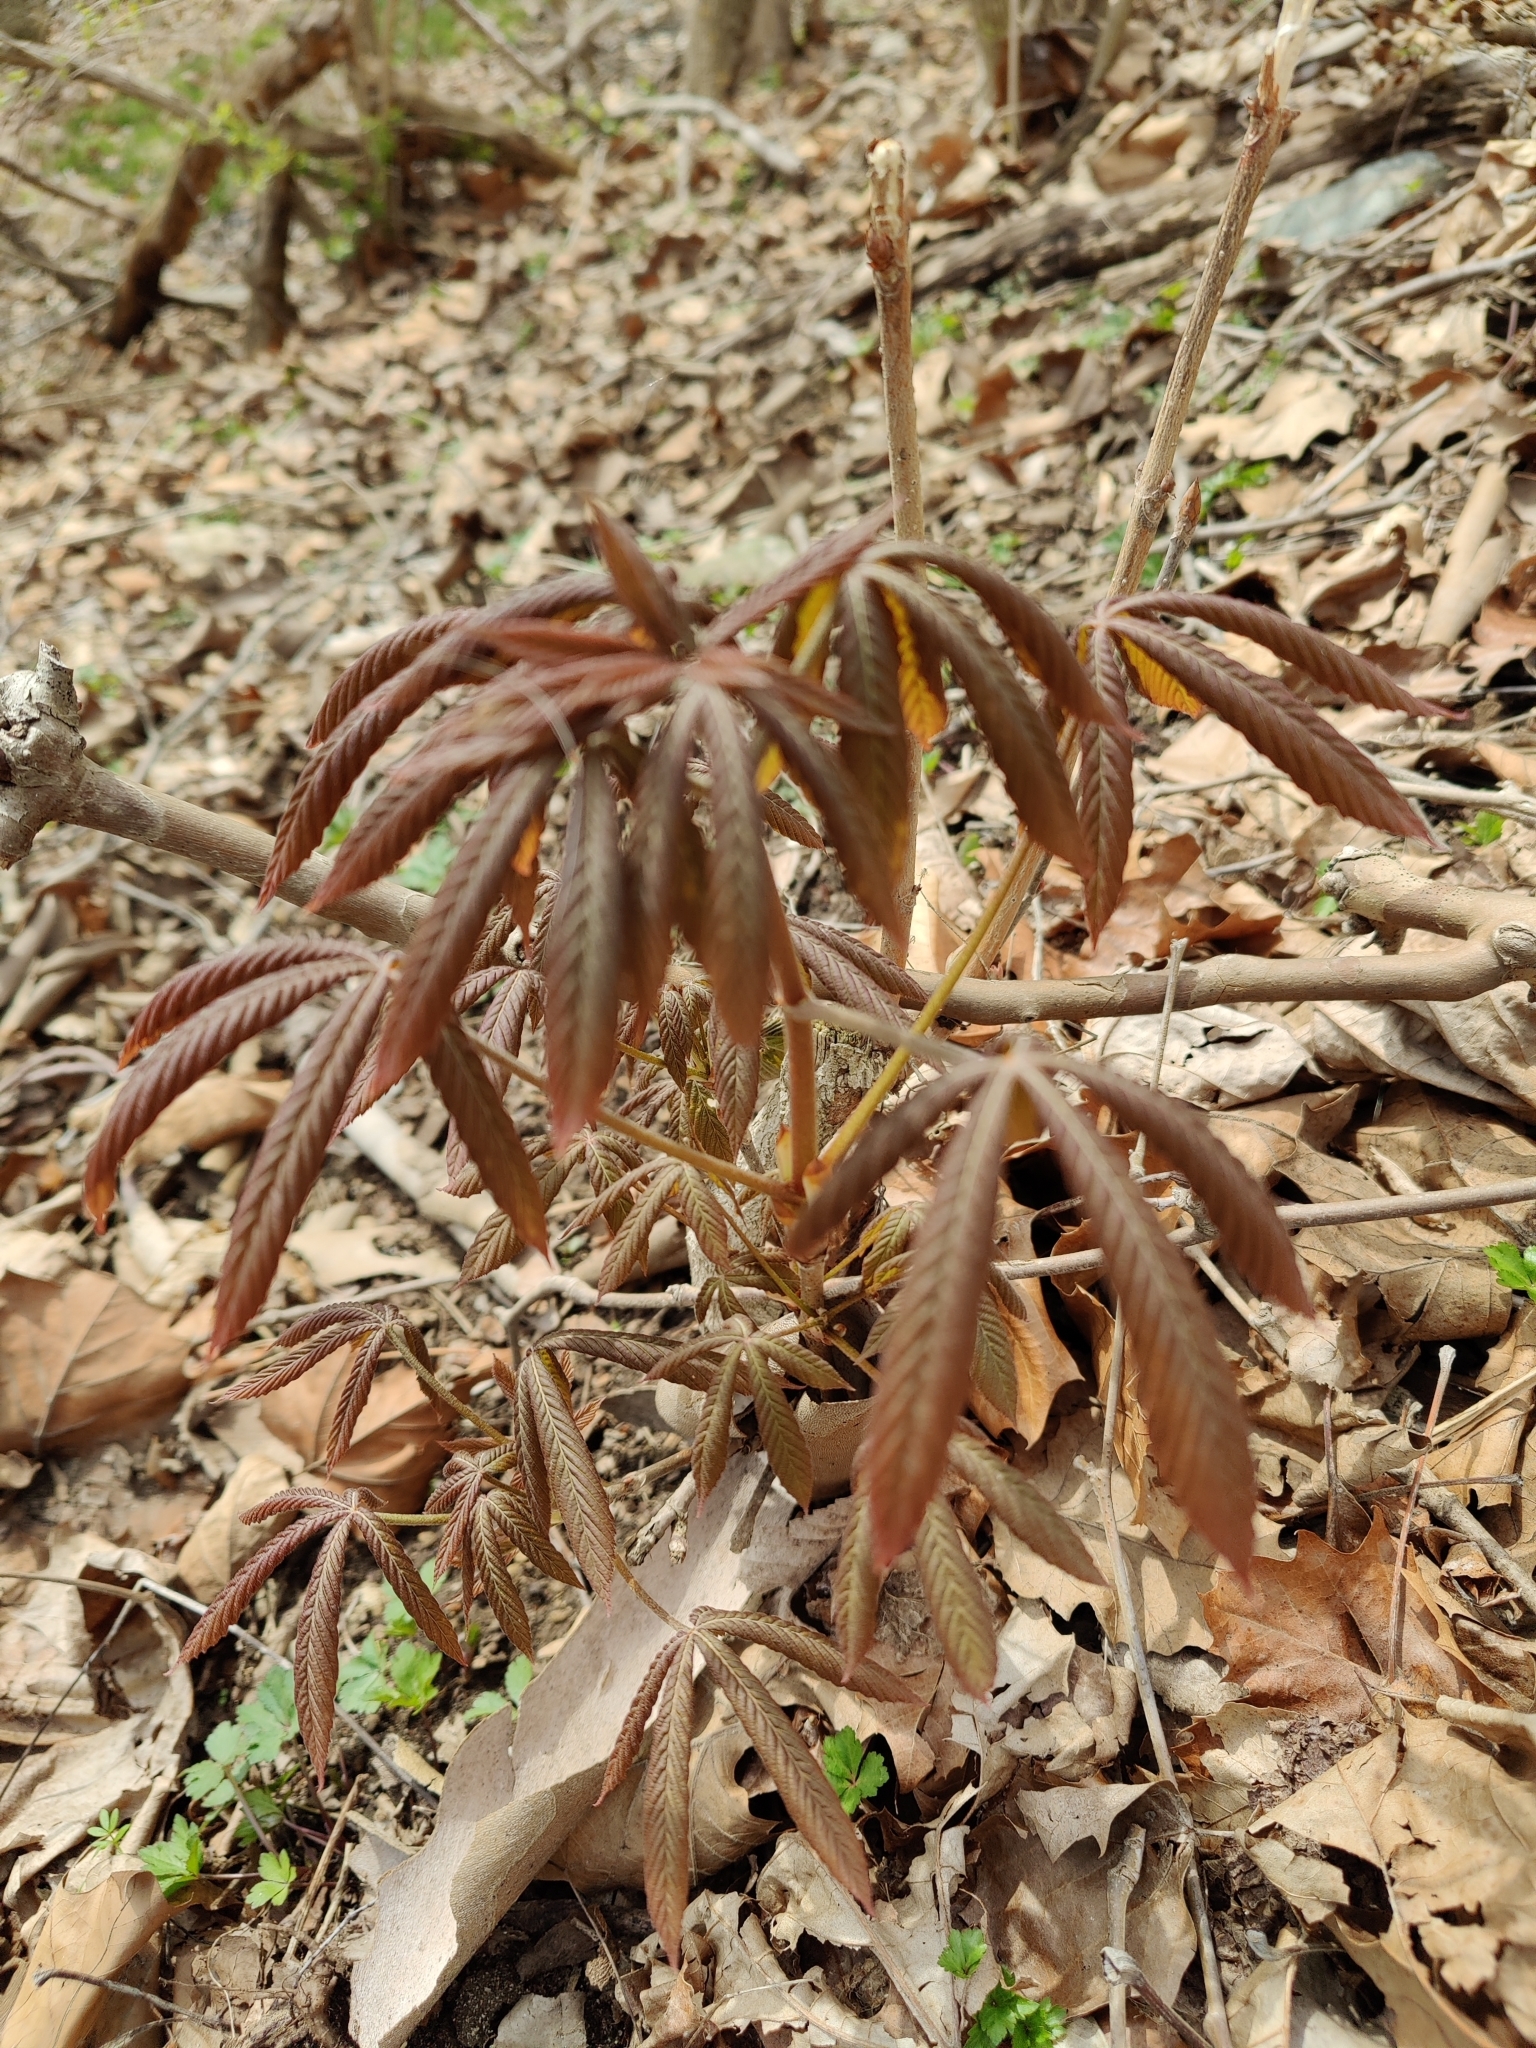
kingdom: Plantae
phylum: Tracheophyta
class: Magnoliopsida
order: Sapindales
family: Sapindaceae
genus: Aesculus
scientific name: Aesculus glabra
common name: Ohio buckeye
